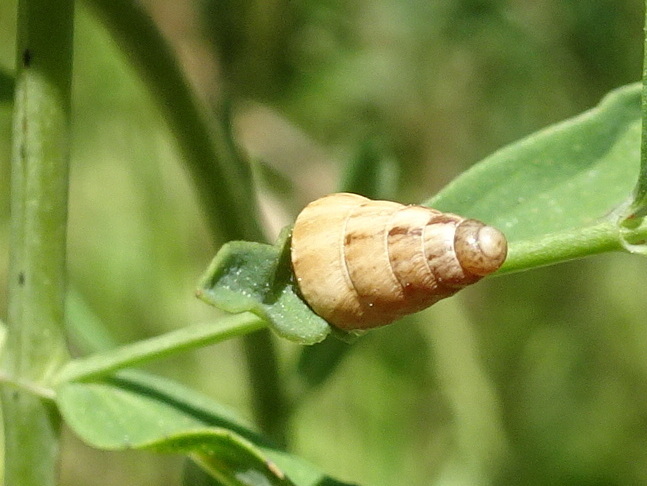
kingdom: Animalia
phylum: Mollusca
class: Gastropoda
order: Stylommatophora
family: Geomitridae
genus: Cochlicella
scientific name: Cochlicella acuta
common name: Pointed snail
